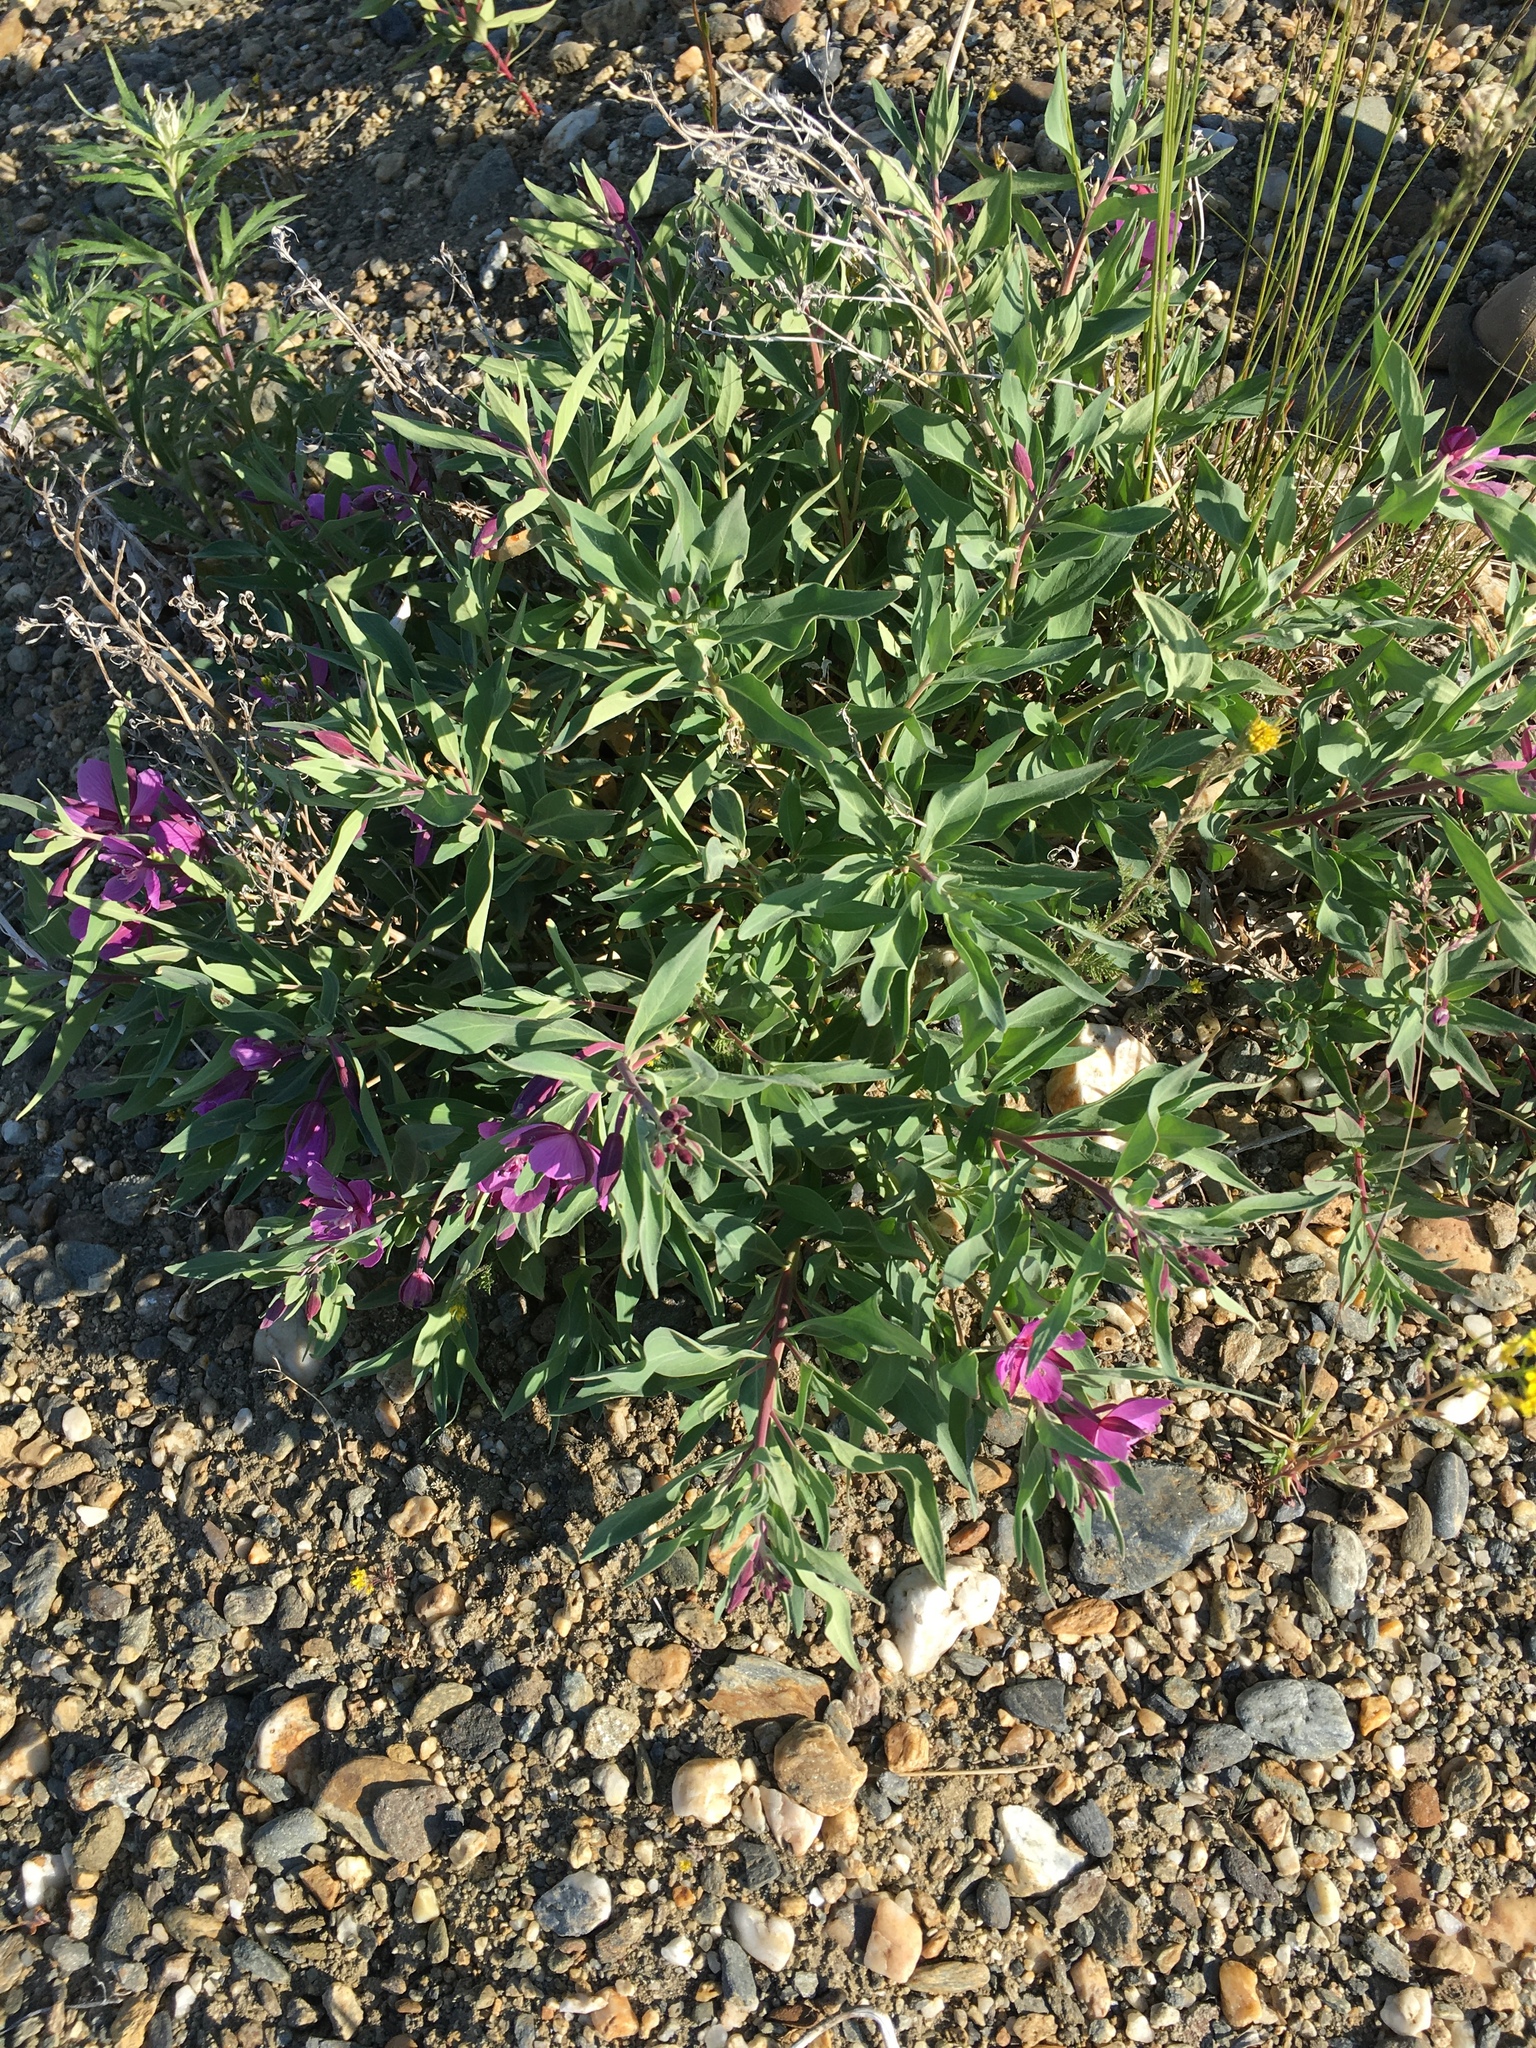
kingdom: Plantae
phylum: Tracheophyta
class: Magnoliopsida
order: Myrtales
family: Onagraceae
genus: Chamaenerion
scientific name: Chamaenerion latifolium
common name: Dwarf fireweed
